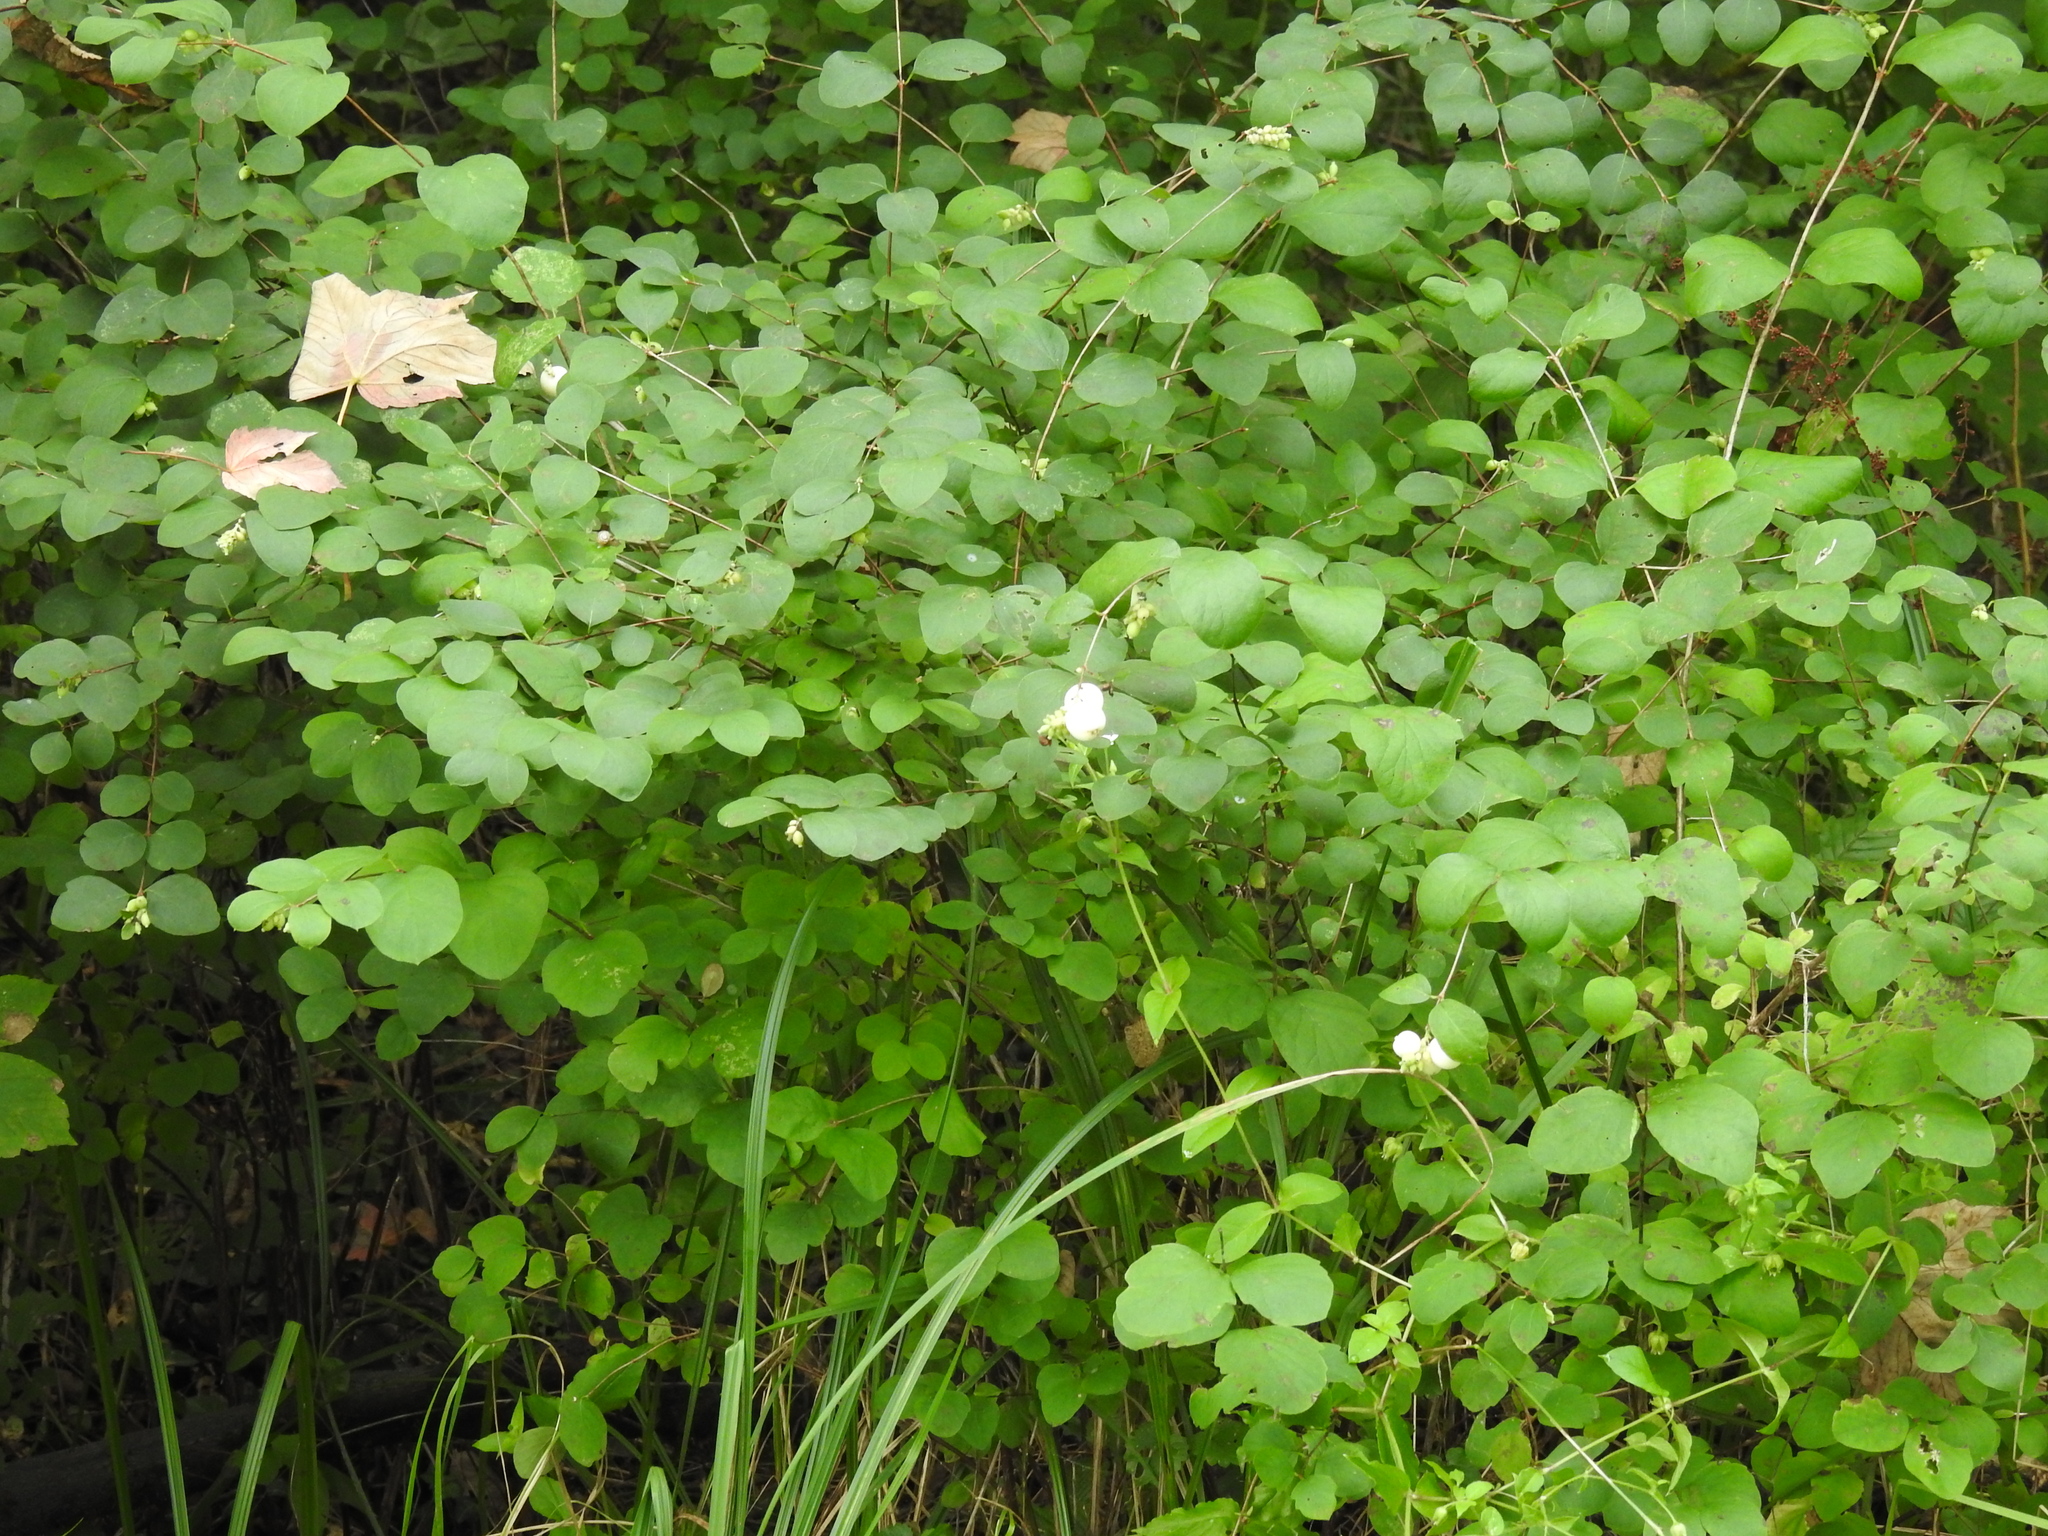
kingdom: Plantae
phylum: Tracheophyta
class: Magnoliopsida
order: Dipsacales
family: Caprifoliaceae
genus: Symphoricarpos
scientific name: Symphoricarpos albus
